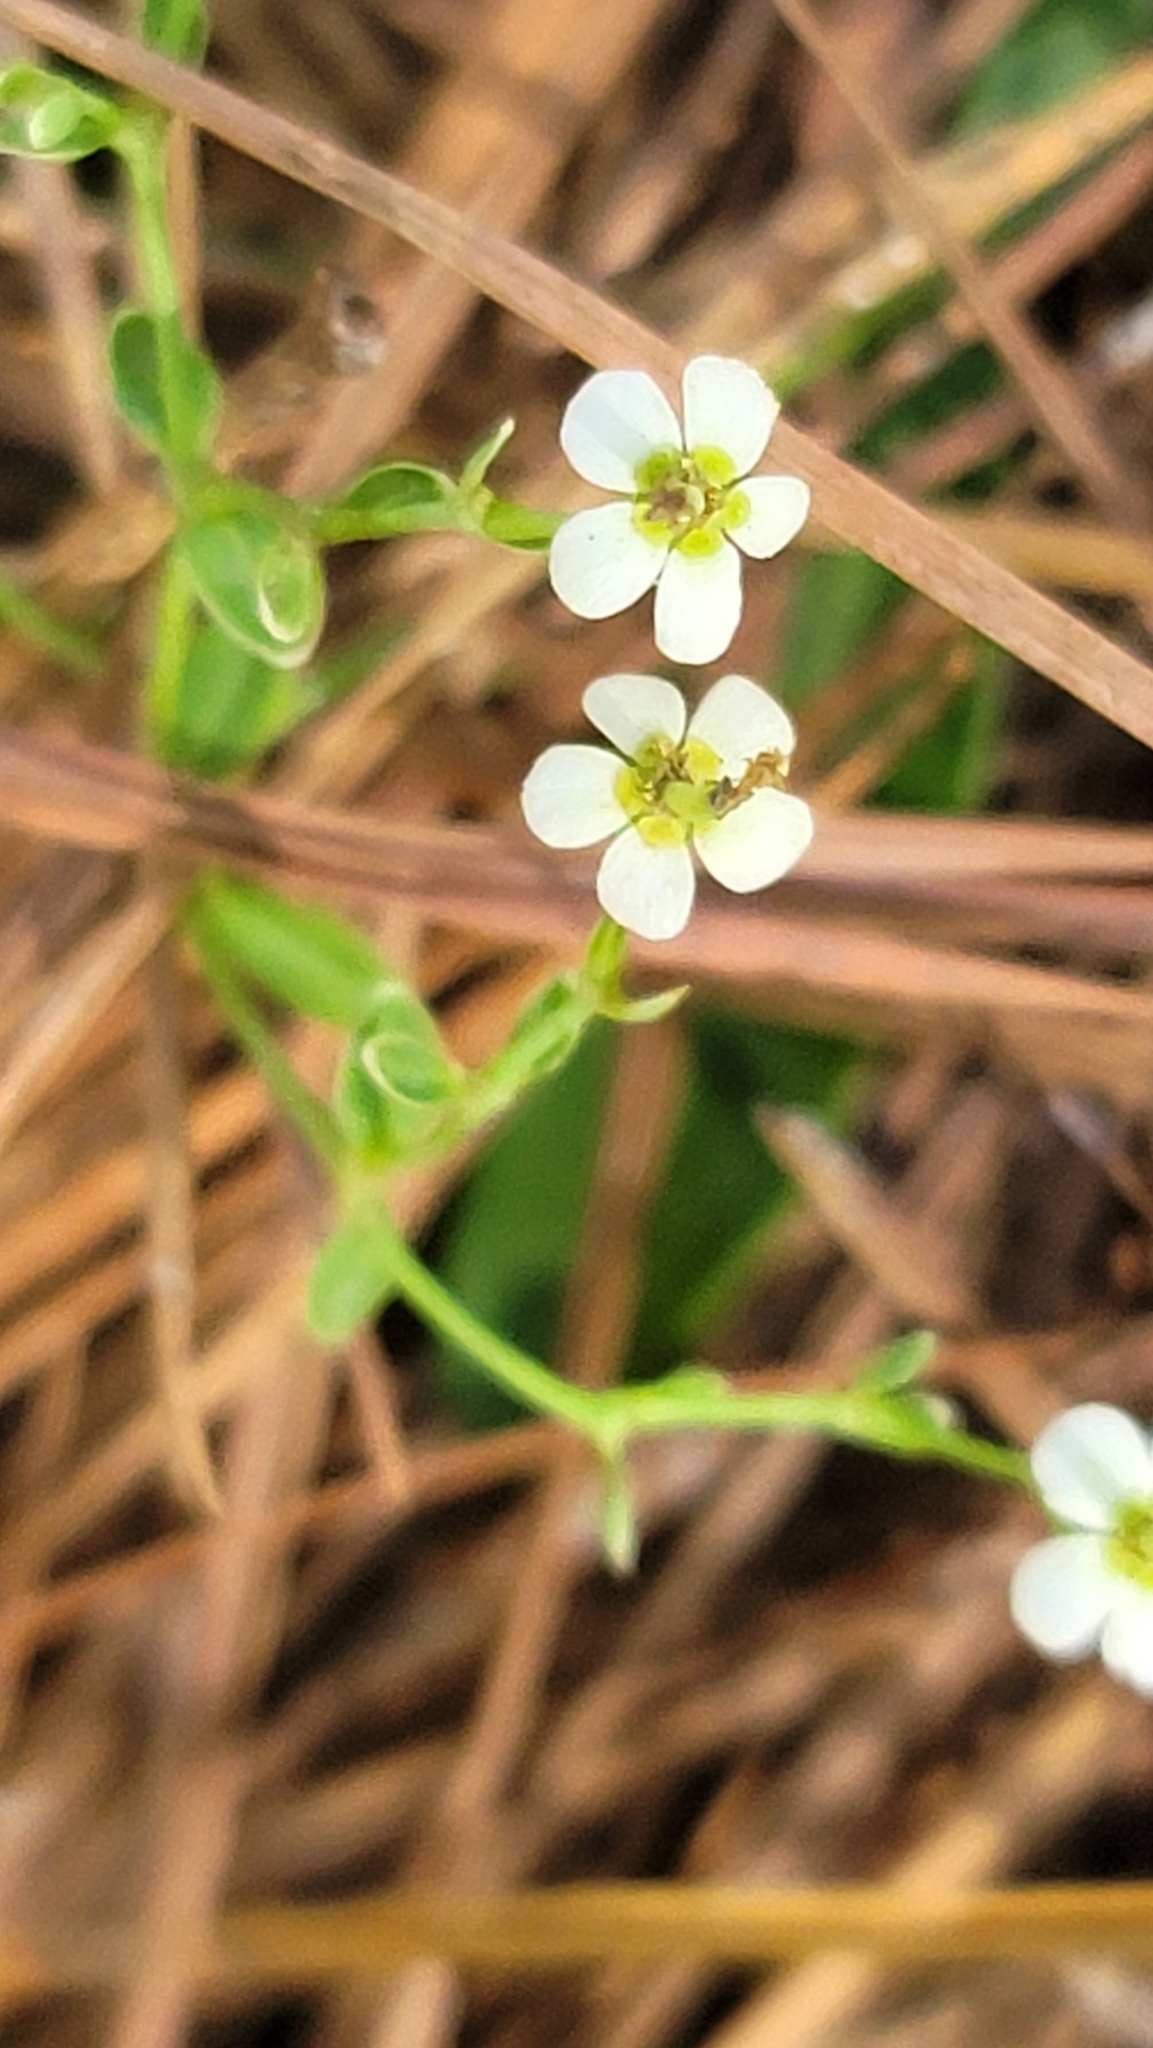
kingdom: Plantae
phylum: Tracheophyta
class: Magnoliopsida
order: Malpighiales
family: Euphorbiaceae
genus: Euphorbia
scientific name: Euphorbia corollata
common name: Flowering spurge
